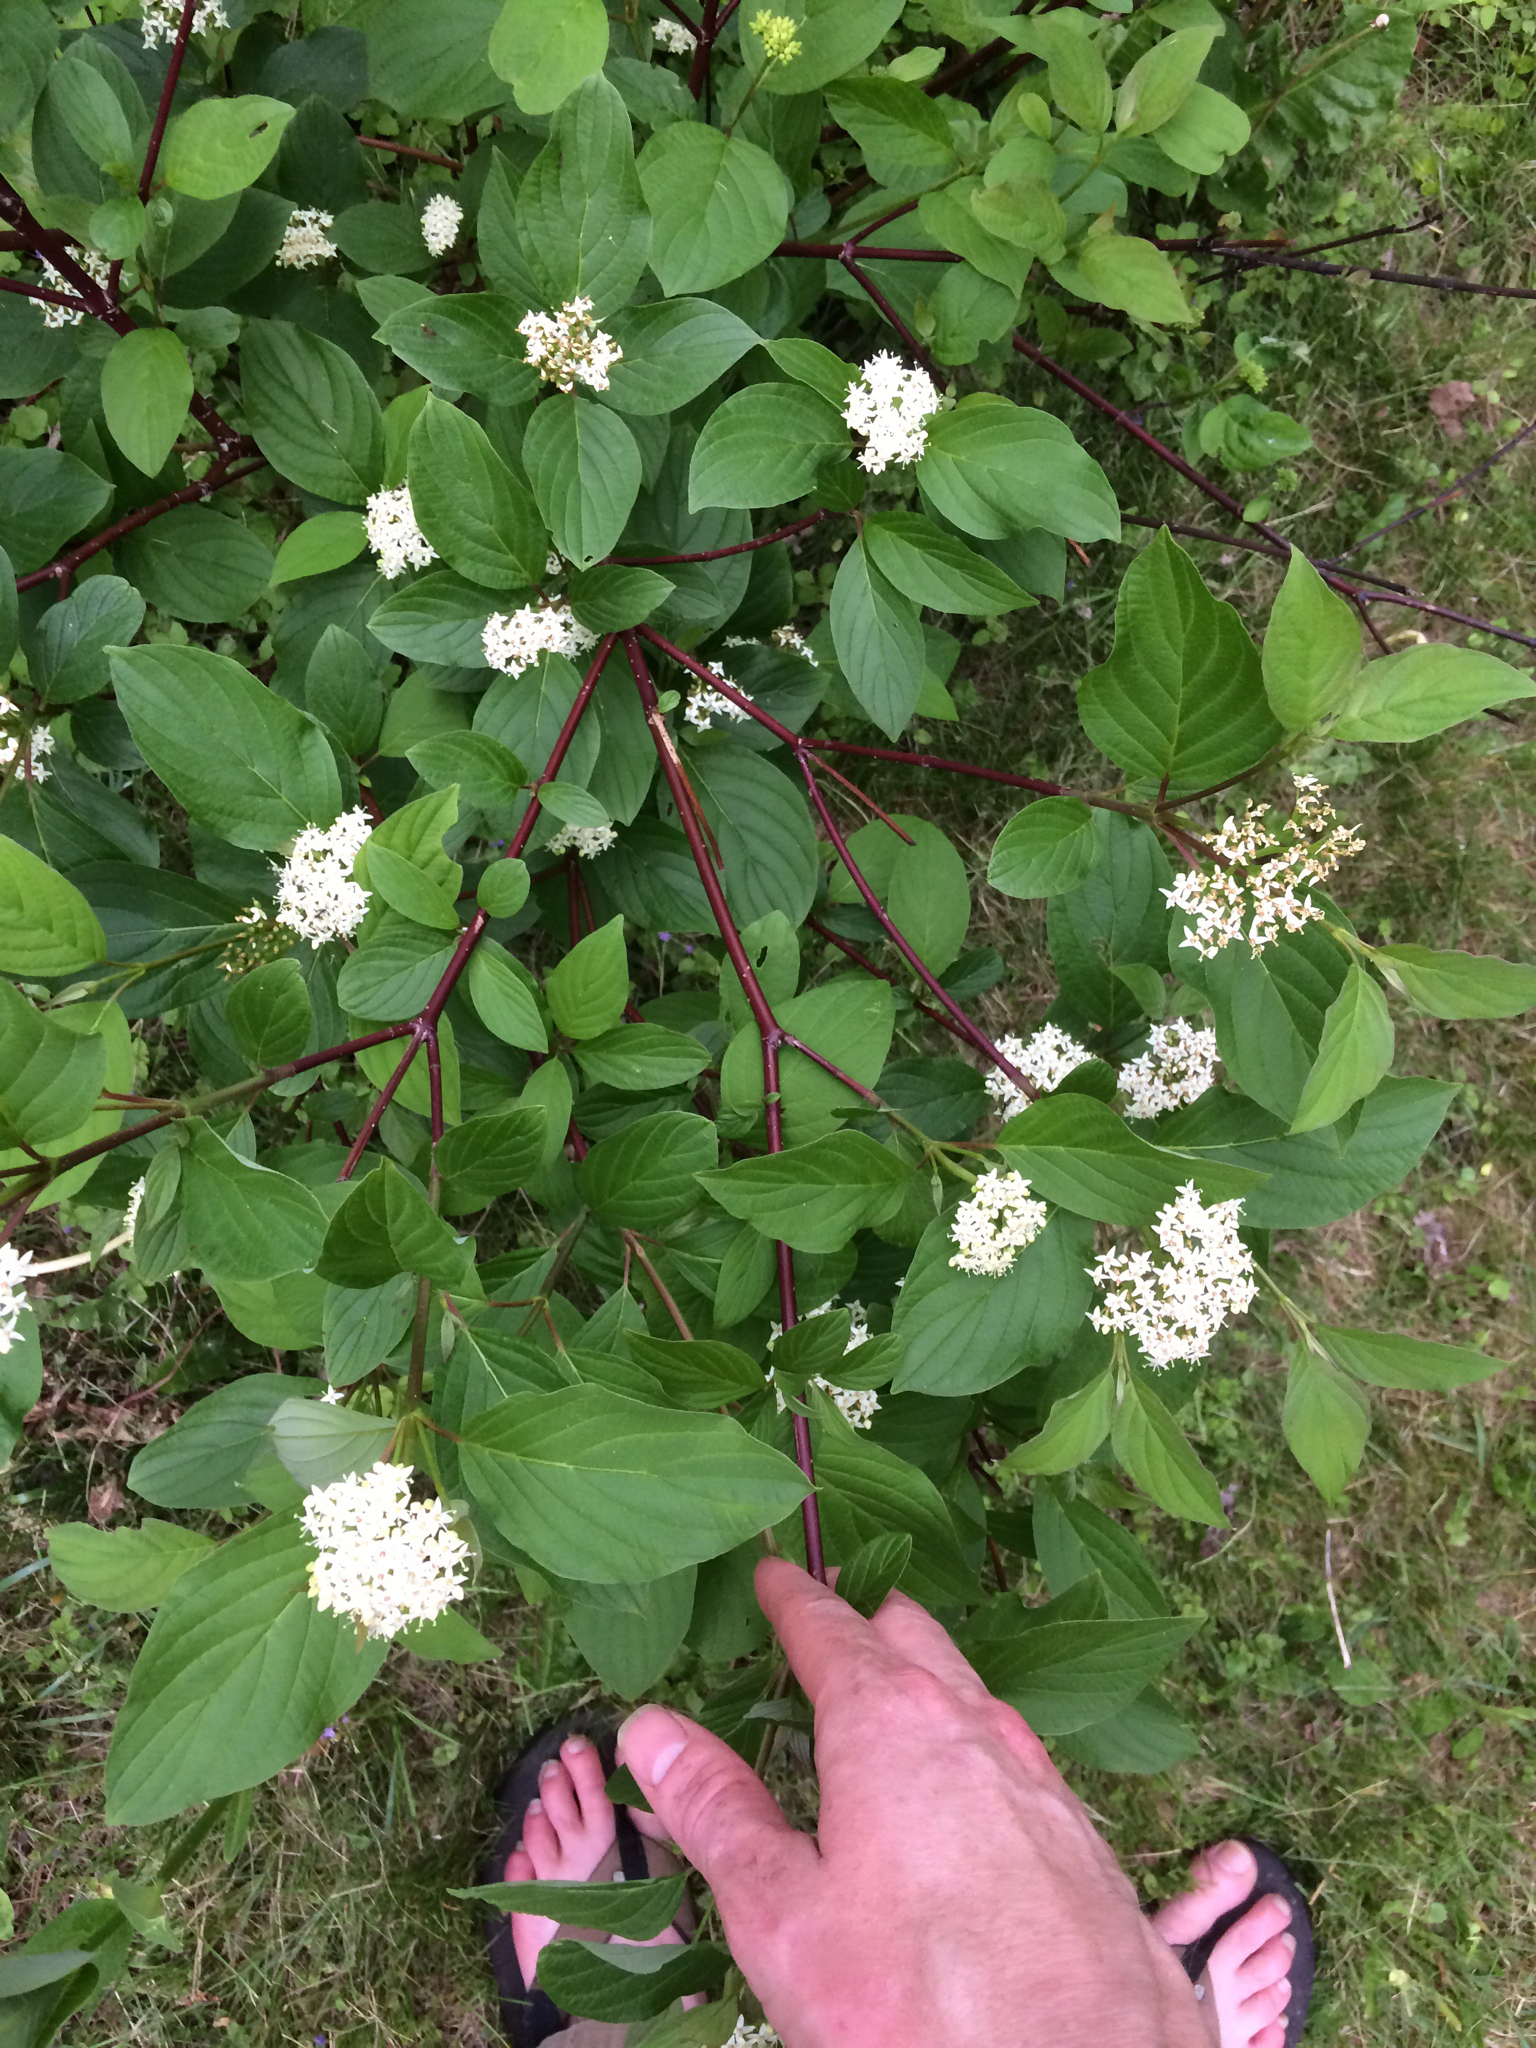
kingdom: Plantae
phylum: Tracheophyta
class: Magnoliopsida
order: Cornales
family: Cornaceae
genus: Cornus
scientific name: Cornus sericea
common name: Red-osier dogwood
